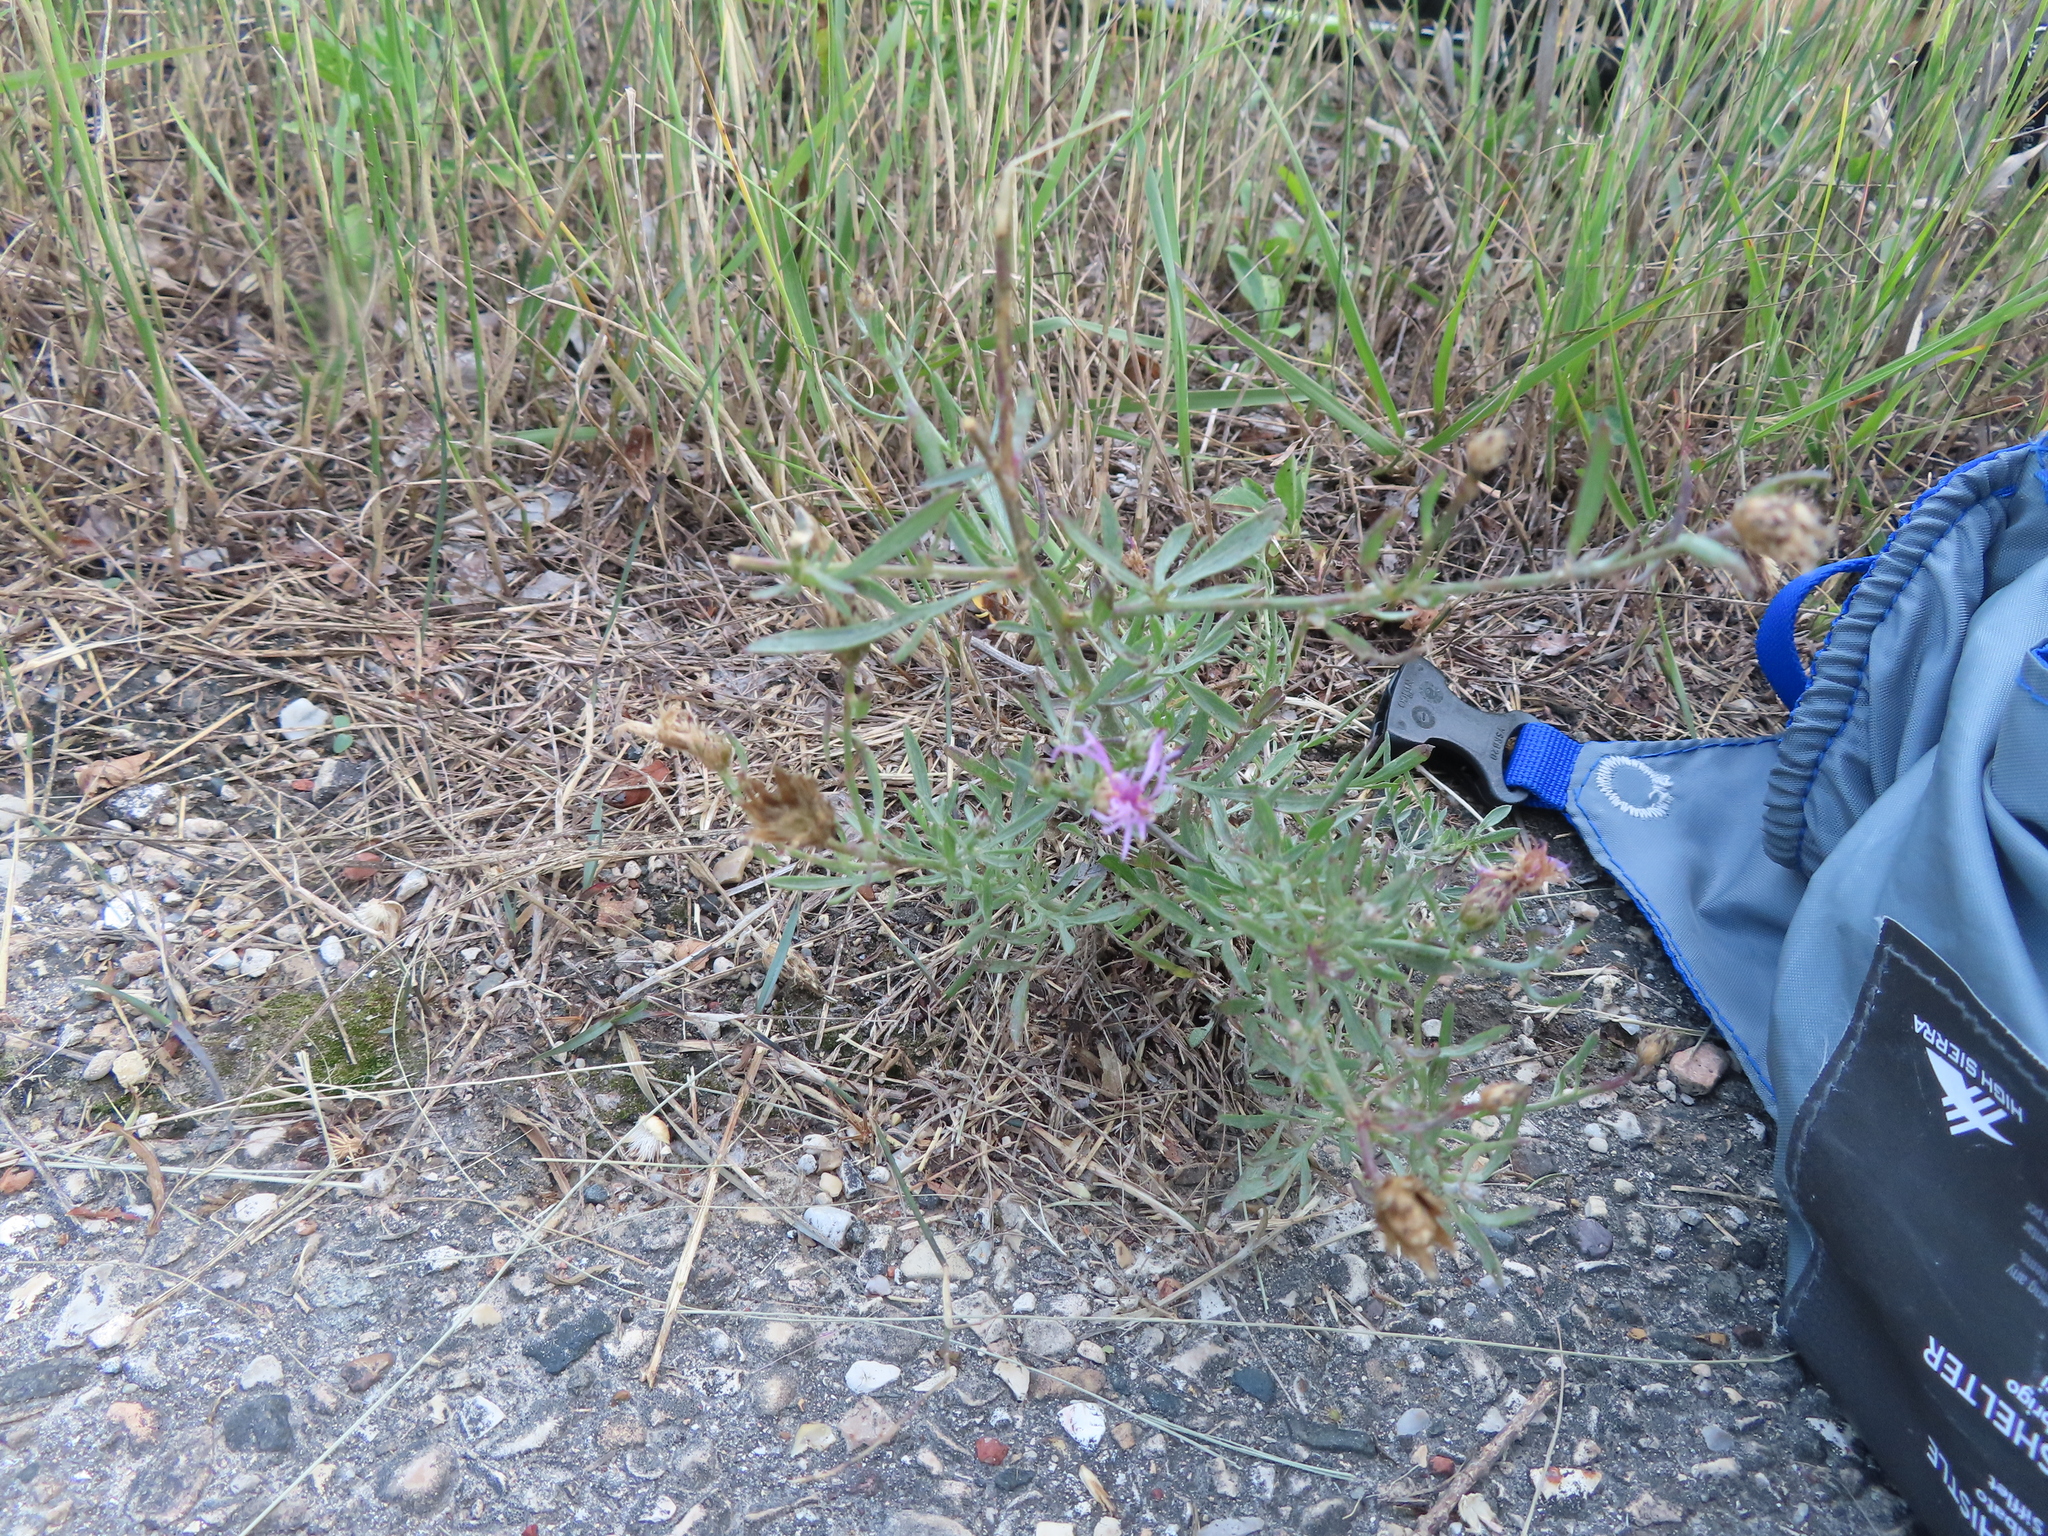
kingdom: Plantae
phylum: Tracheophyta
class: Magnoliopsida
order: Asterales
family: Asteraceae
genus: Centaurea
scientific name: Centaurea stoebe
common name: Spotted knapweed
